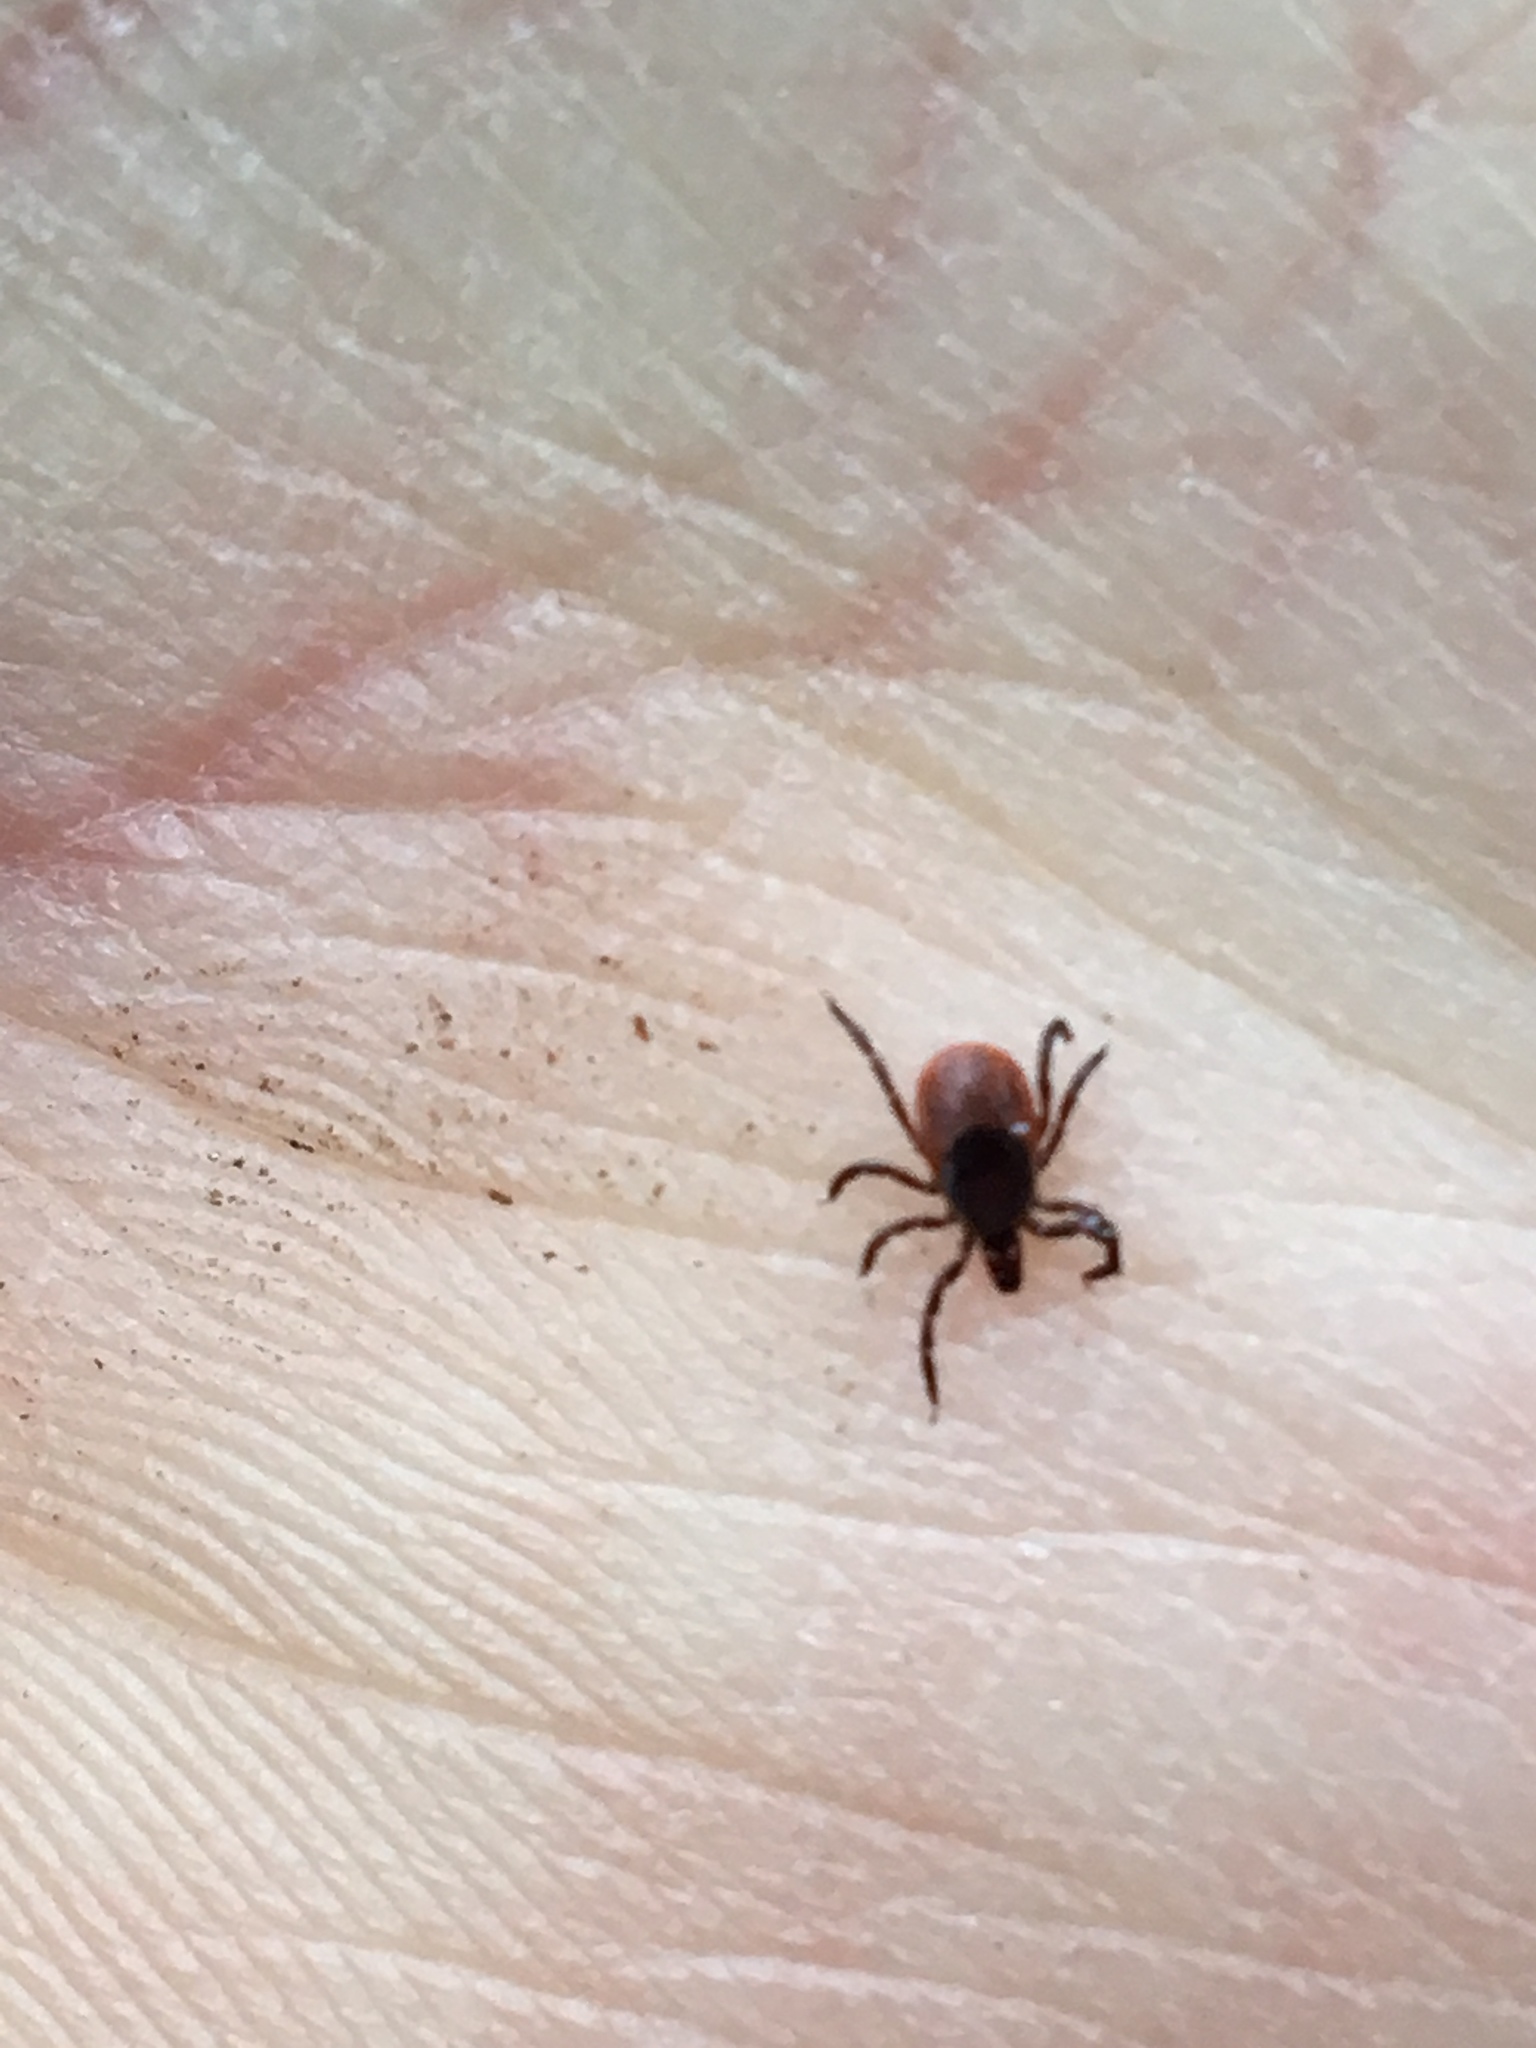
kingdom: Animalia
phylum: Arthropoda
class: Arachnida
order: Ixodida
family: Ixodidae
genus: Ixodes
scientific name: Ixodes scapularis
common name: Black legged tick
